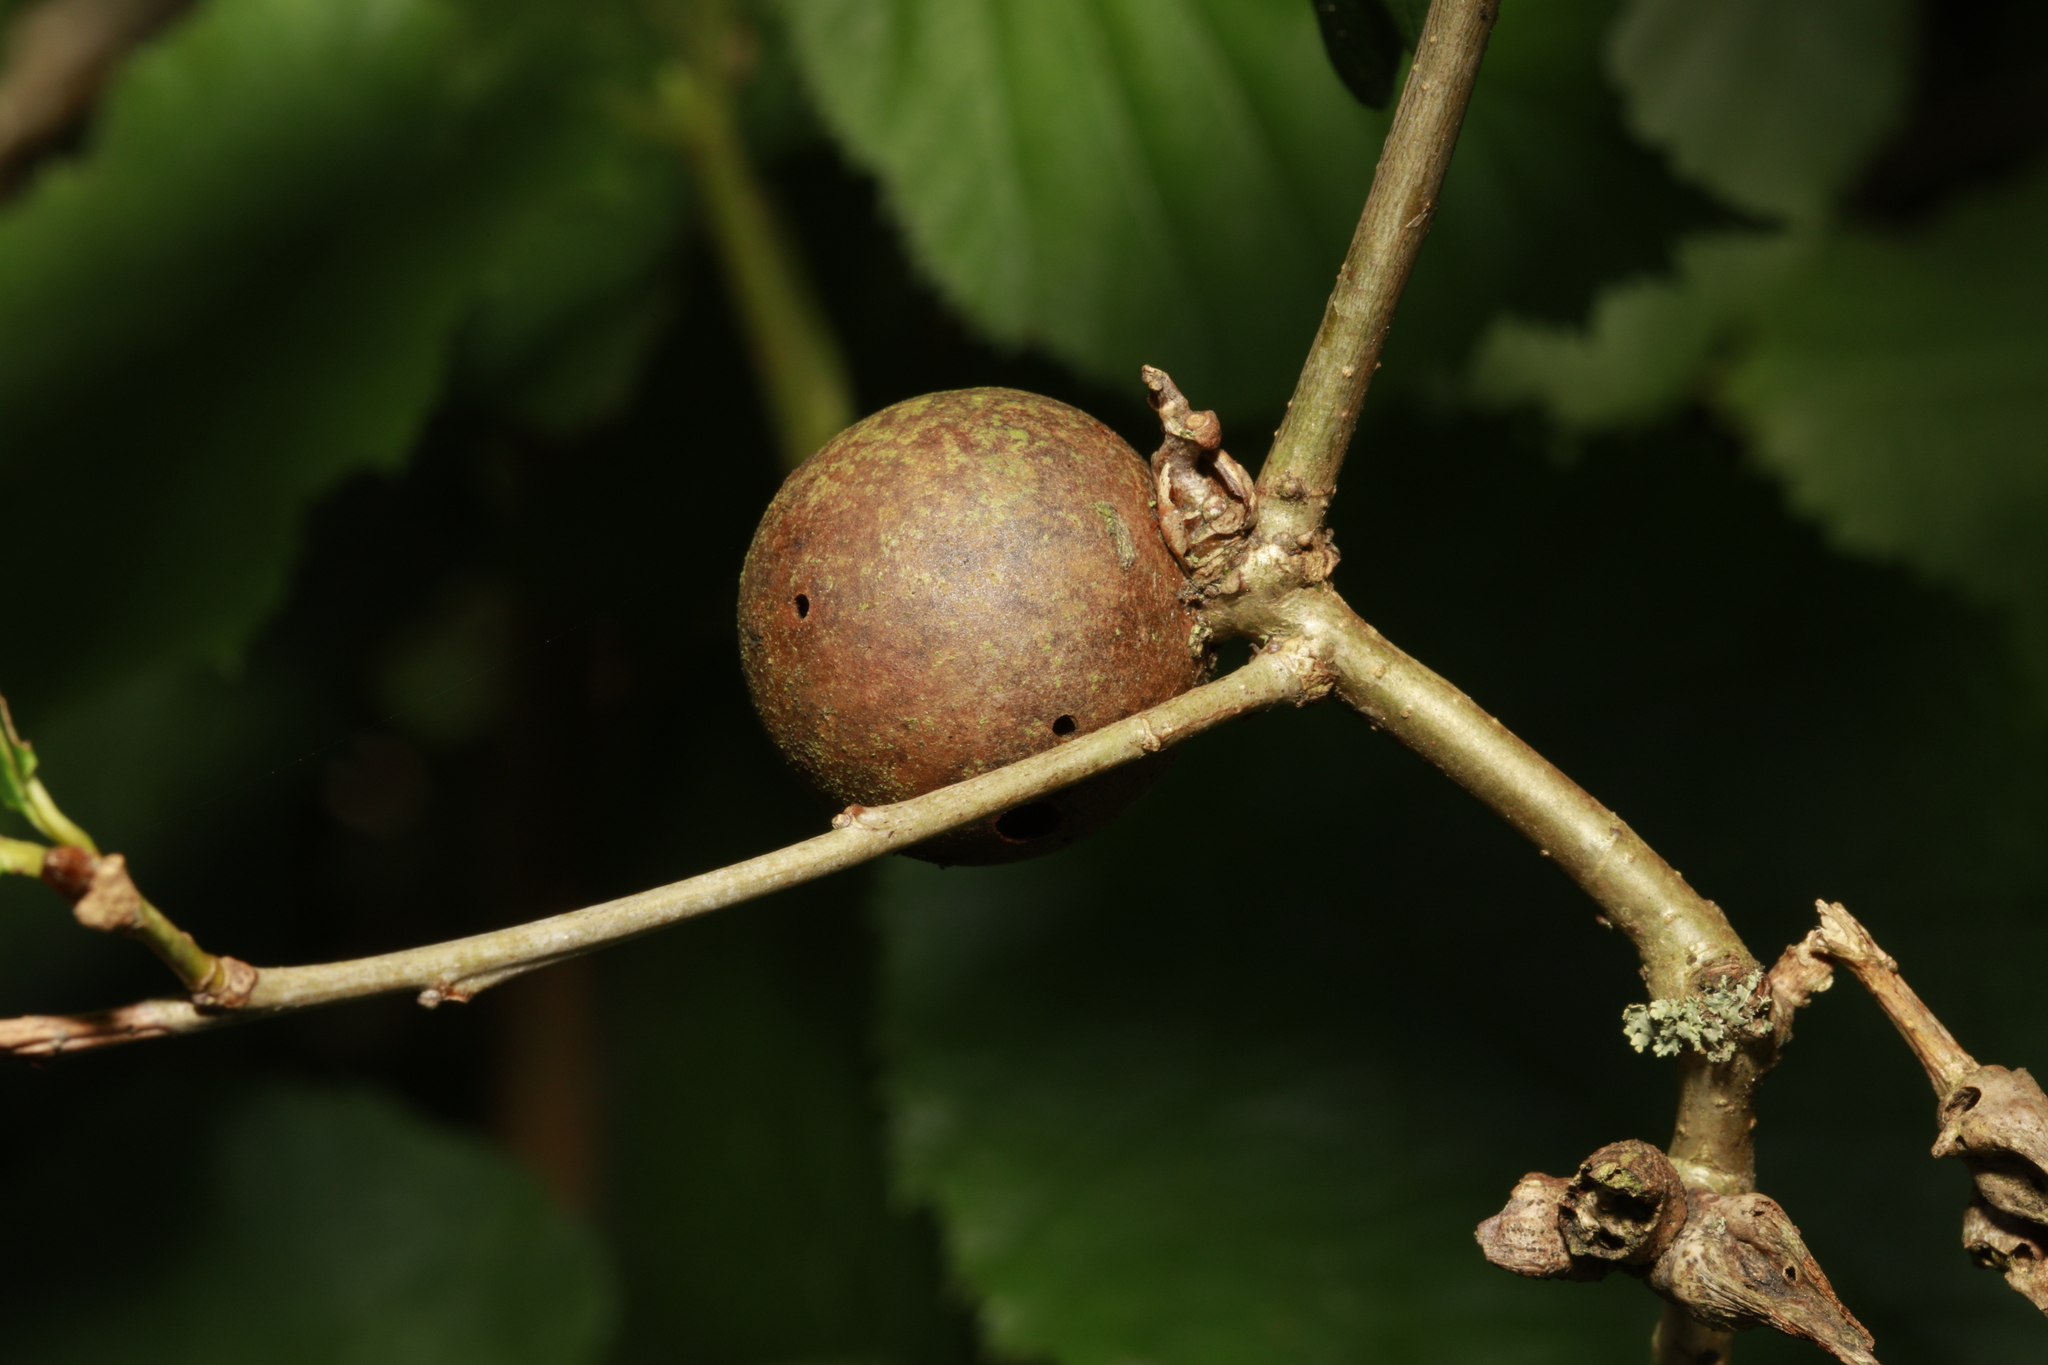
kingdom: Animalia
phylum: Arthropoda
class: Insecta
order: Hymenoptera
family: Cynipidae
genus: Andricus
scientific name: Andricus kollari
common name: Marble gall
